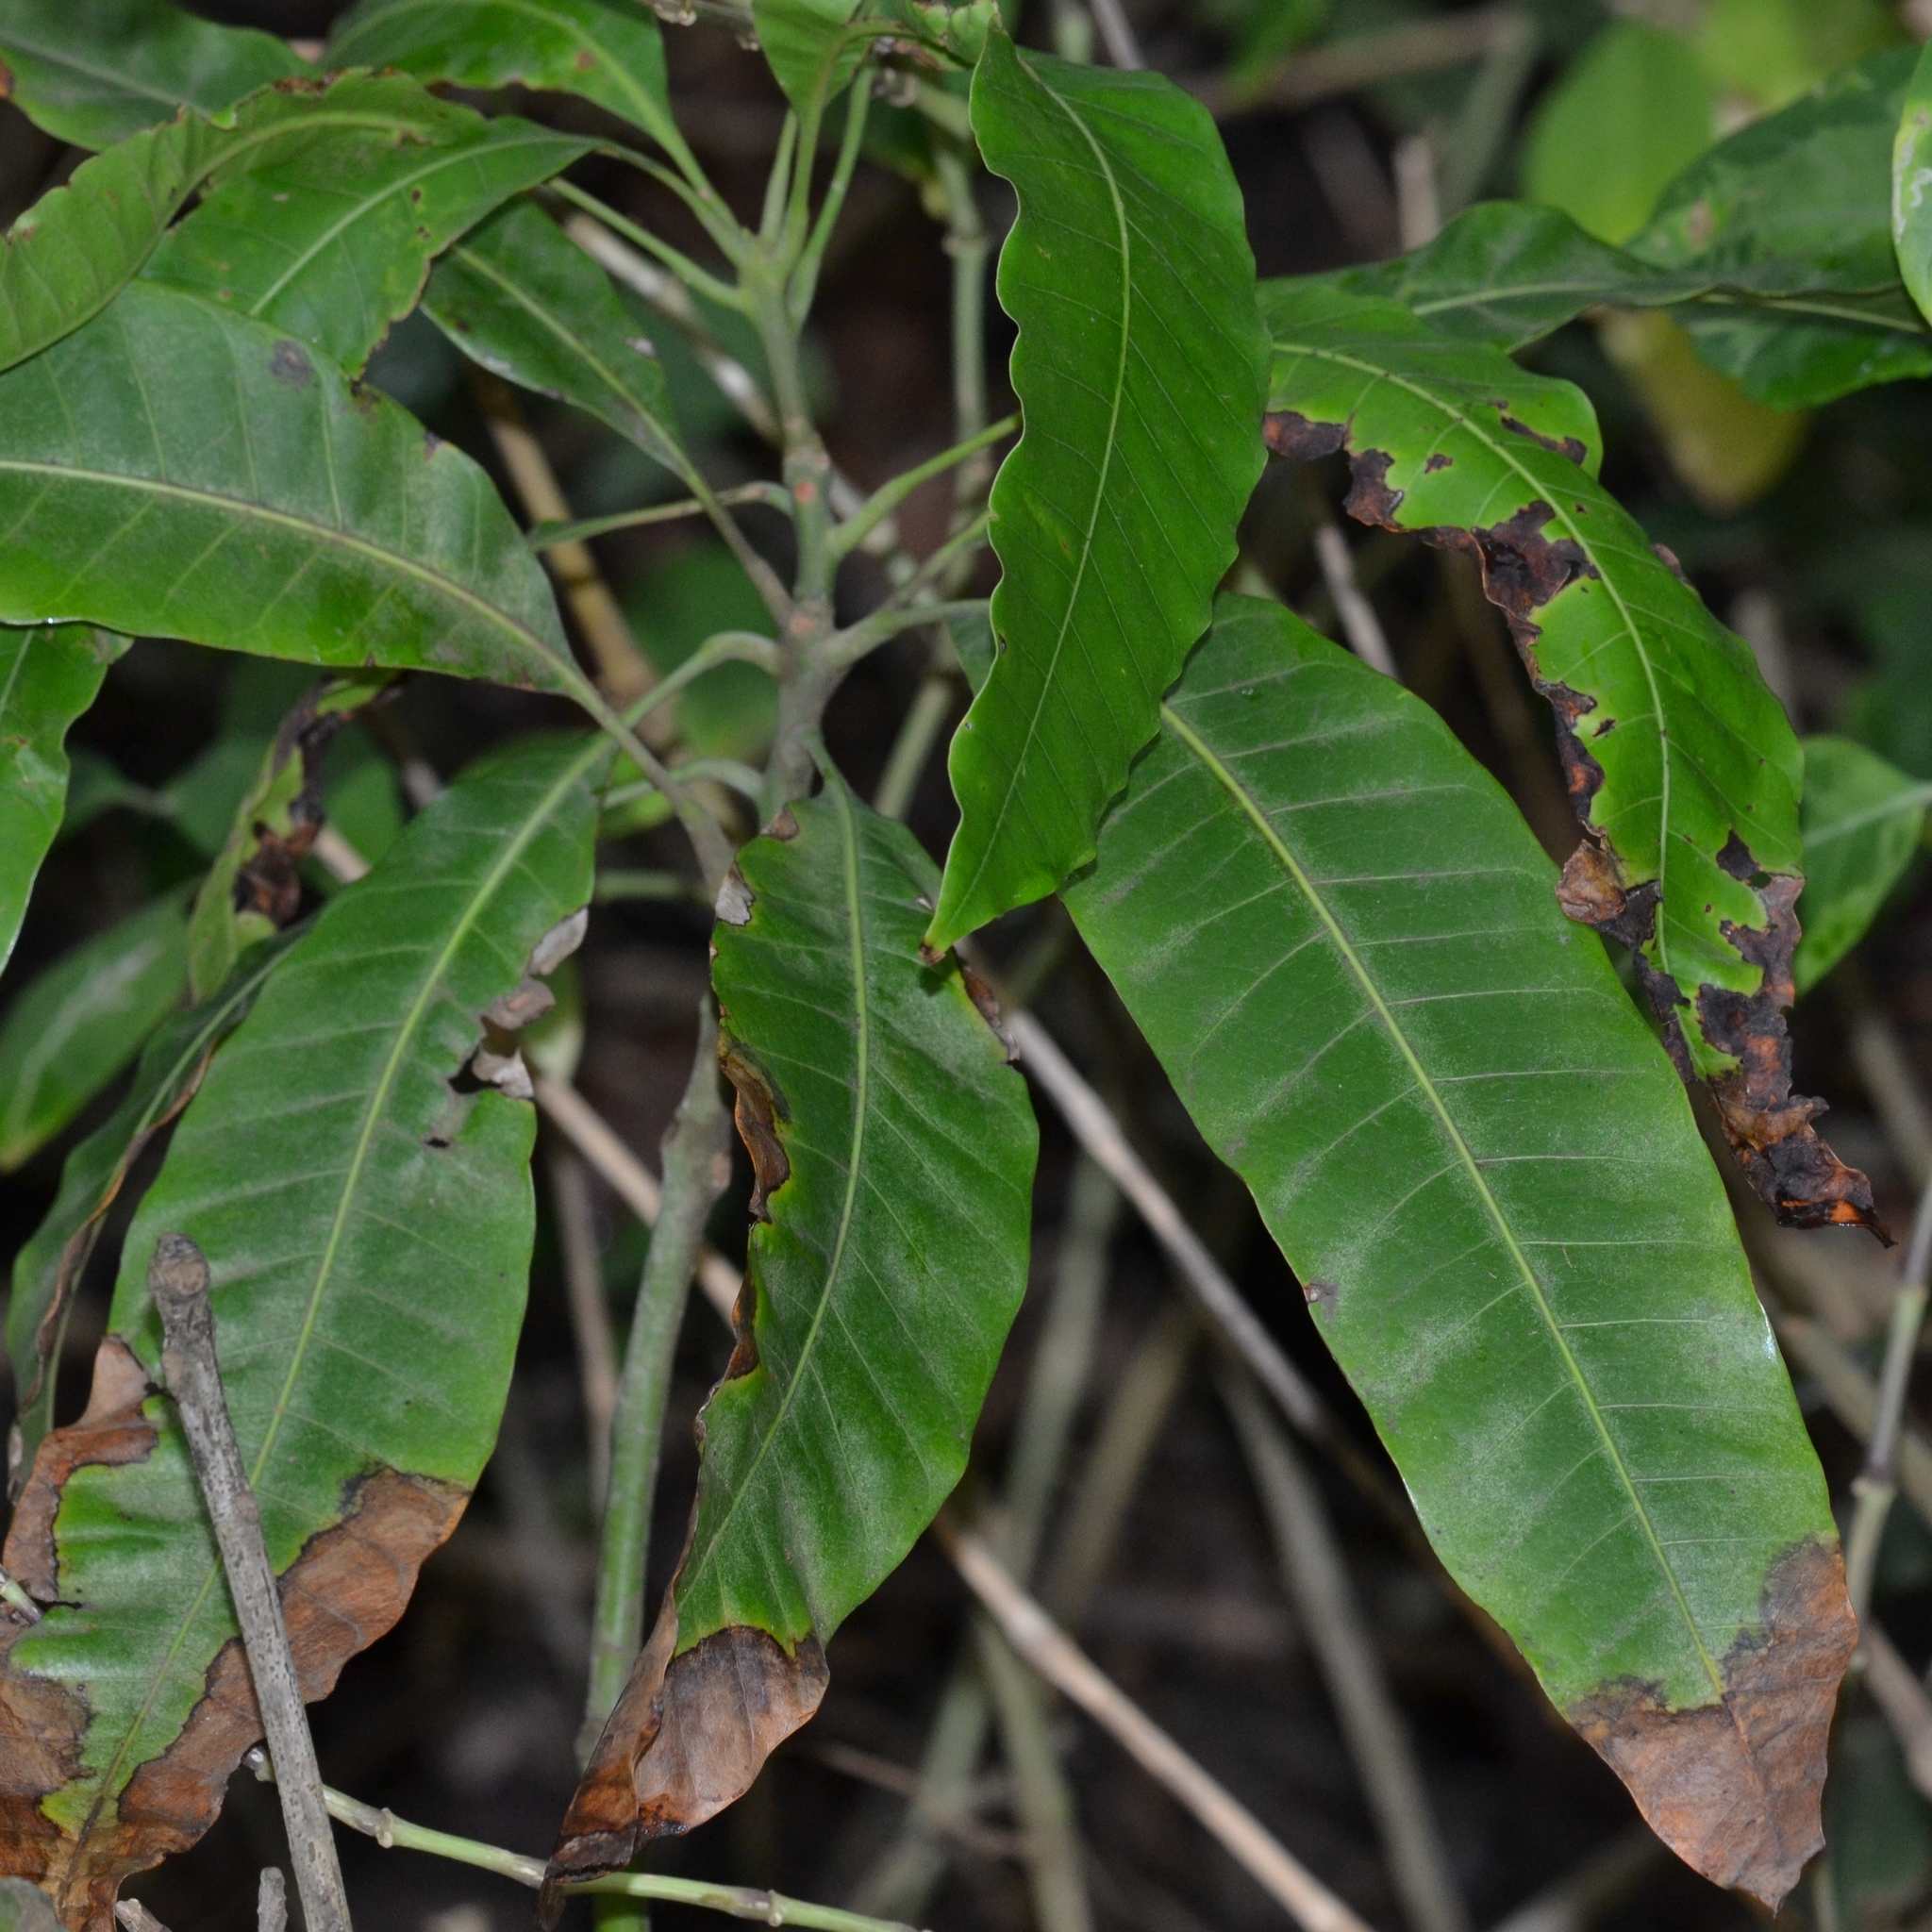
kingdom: Plantae
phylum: Tracheophyta
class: Magnoliopsida
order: Sapindales
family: Anacardiaceae
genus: Mangifera
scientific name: Mangifera indica
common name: Mango
